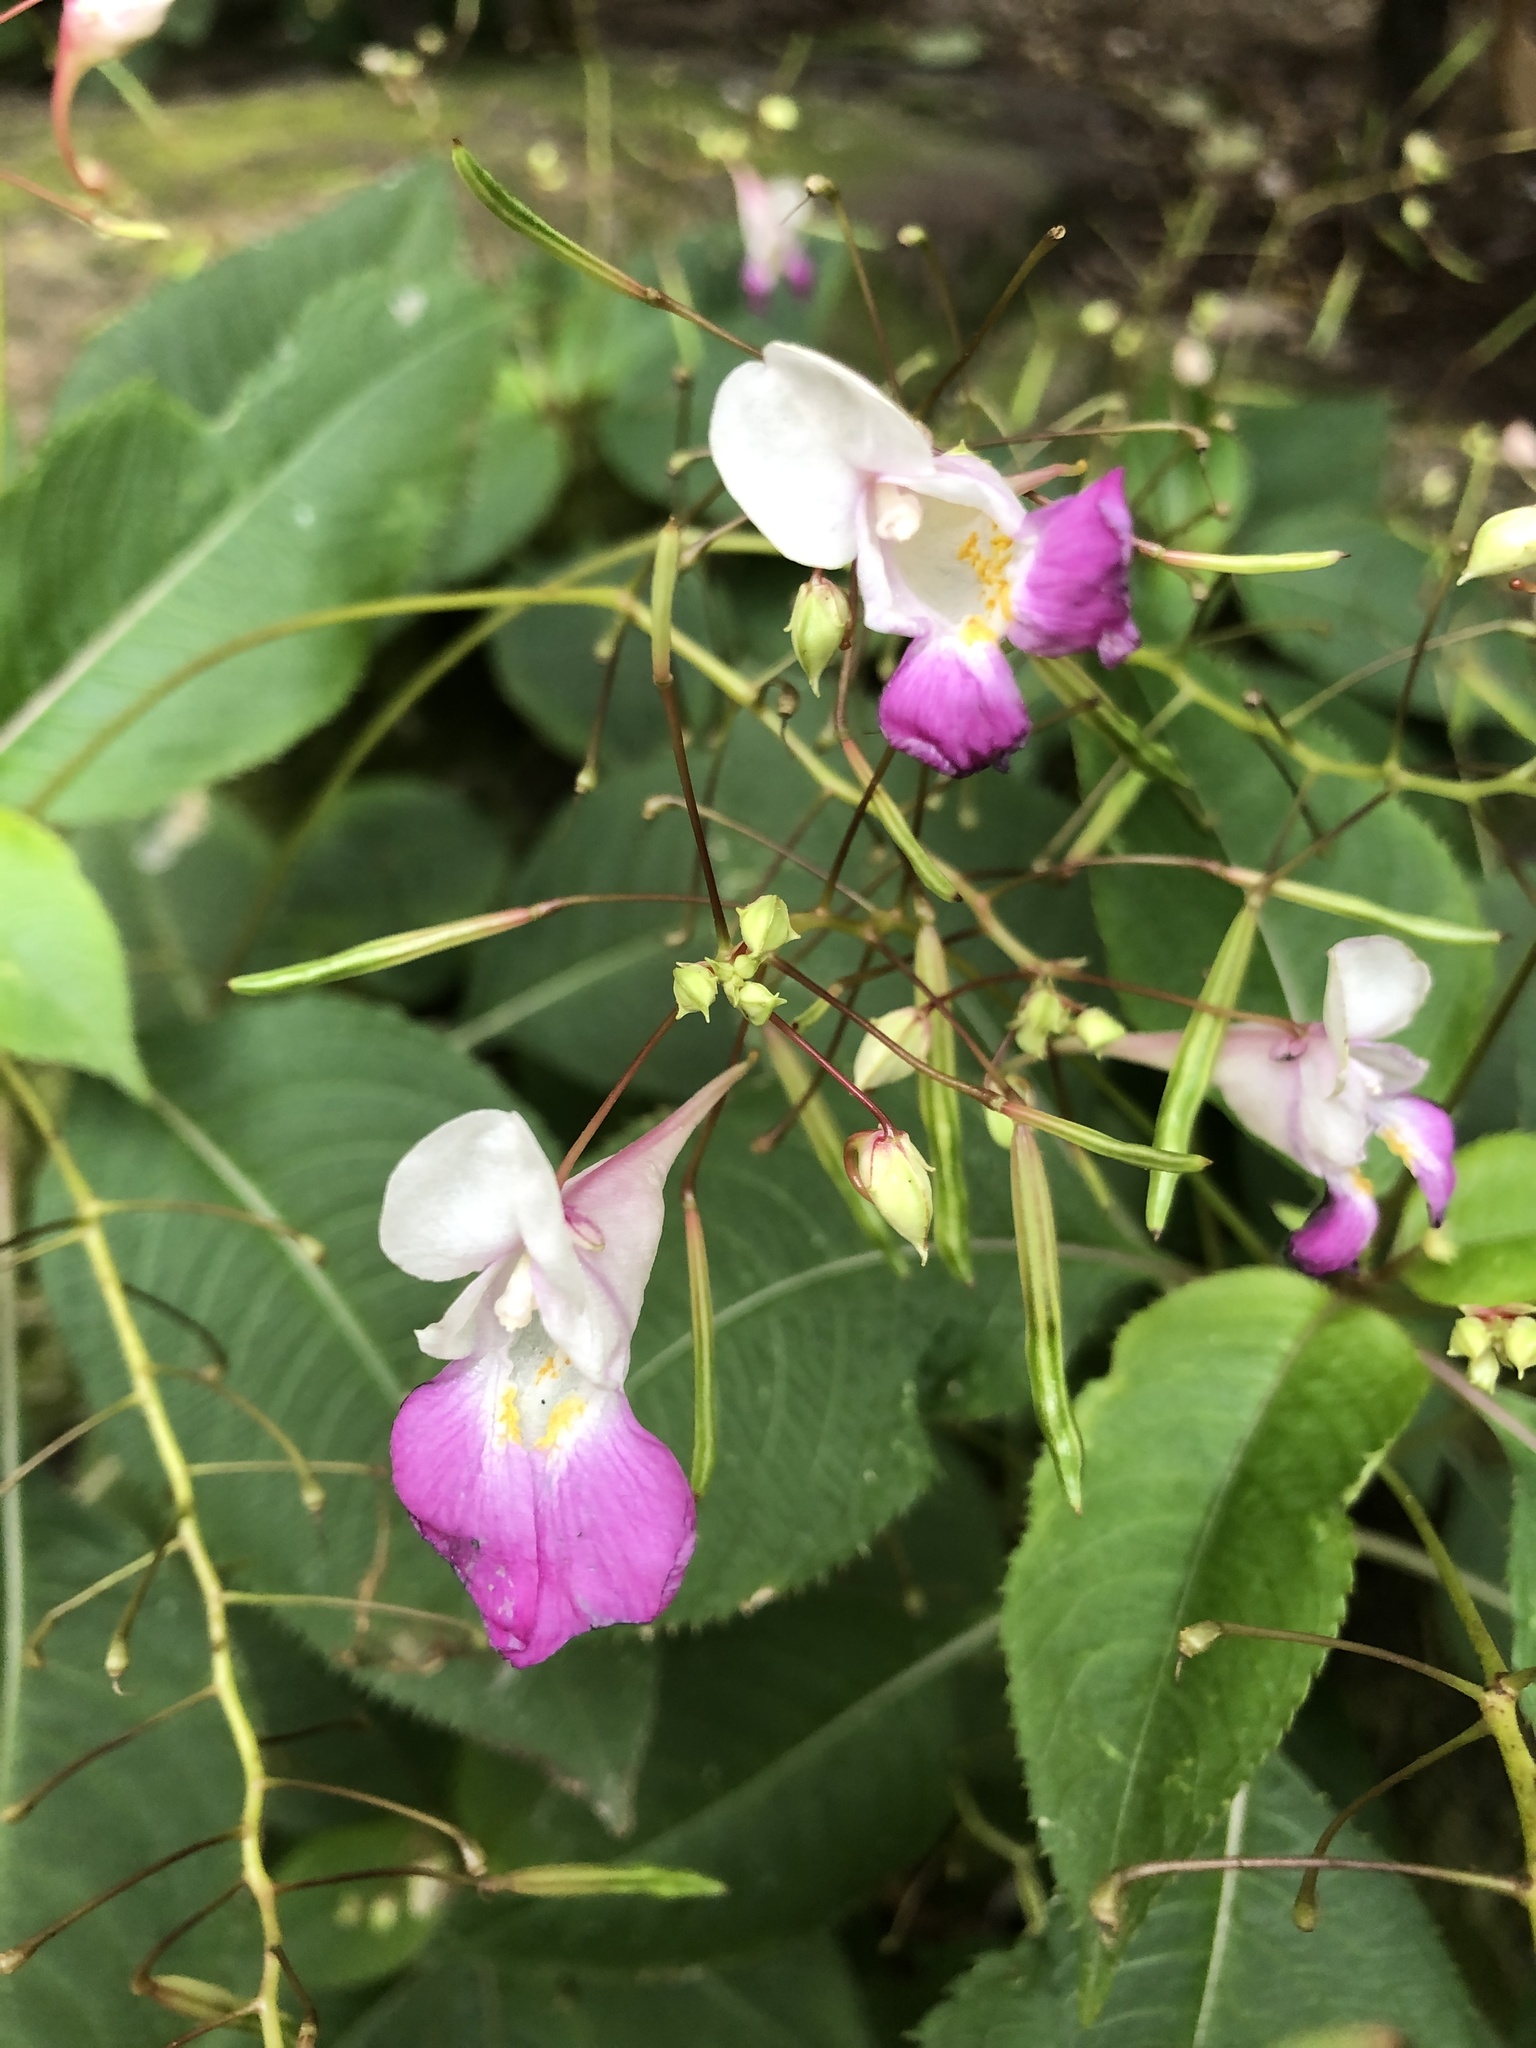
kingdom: Plantae
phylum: Tracheophyta
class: Magnoliopsida
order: Ericales
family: Balsaminaceae
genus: Impatiens
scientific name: Impatiens balfourii
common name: Balfour's touch-me-not
